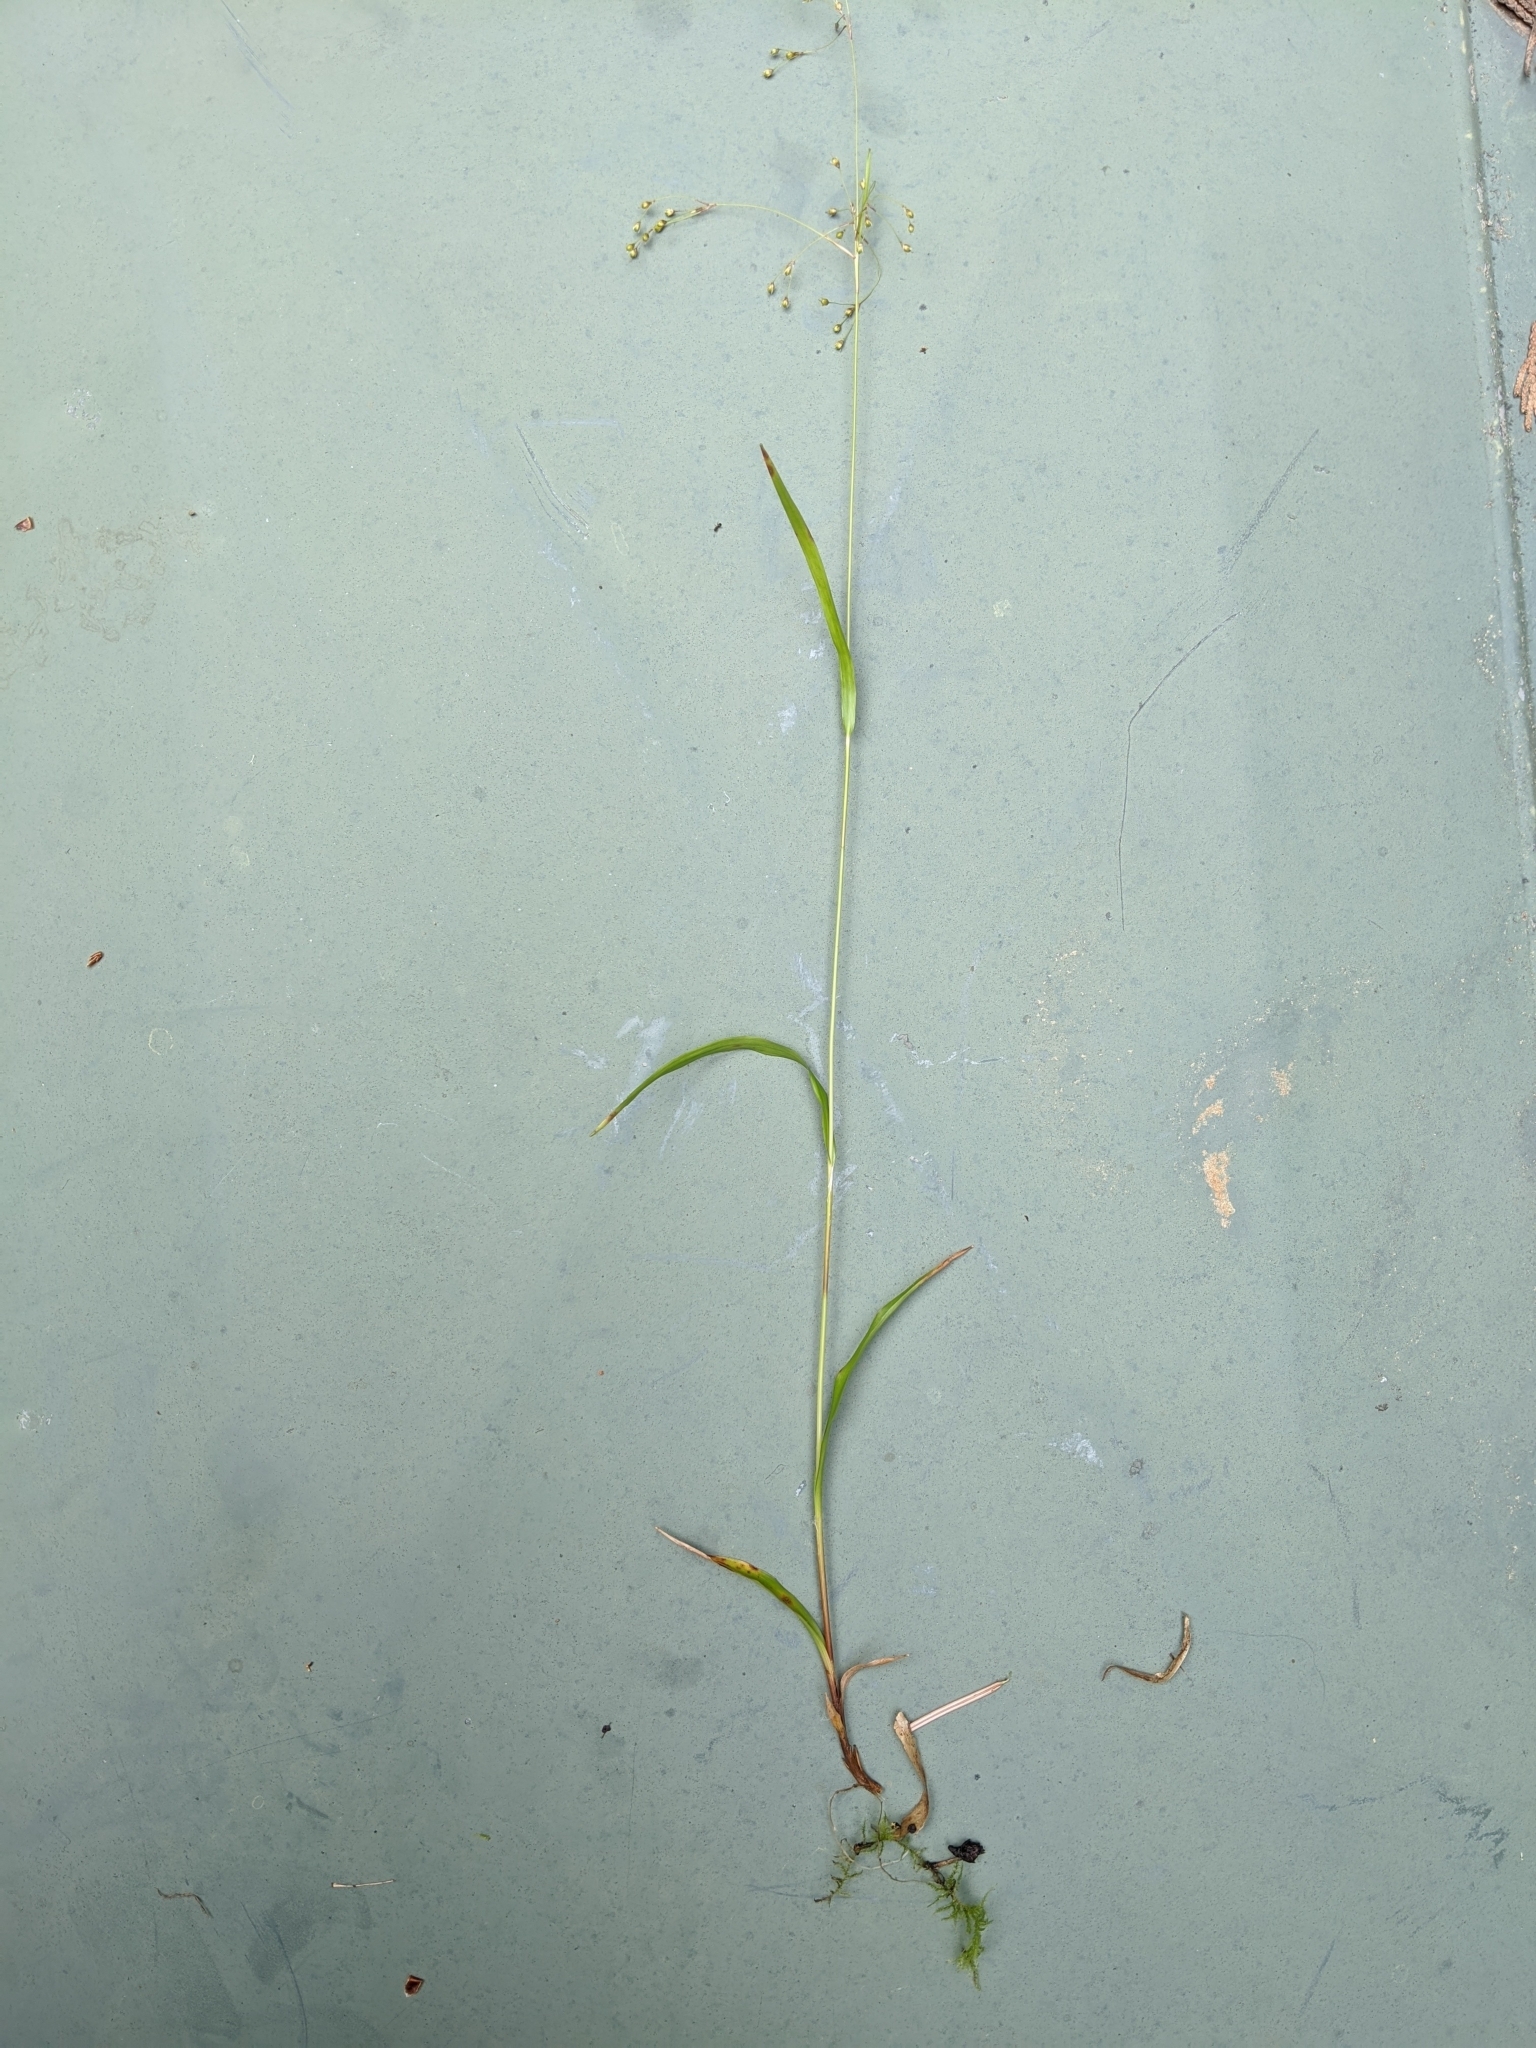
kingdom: Plantae
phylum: Tracheophyta
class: Liliopsida
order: Poales
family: Juncaceae
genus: Luzula
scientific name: Luzula parviflora
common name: Millet woodrush
